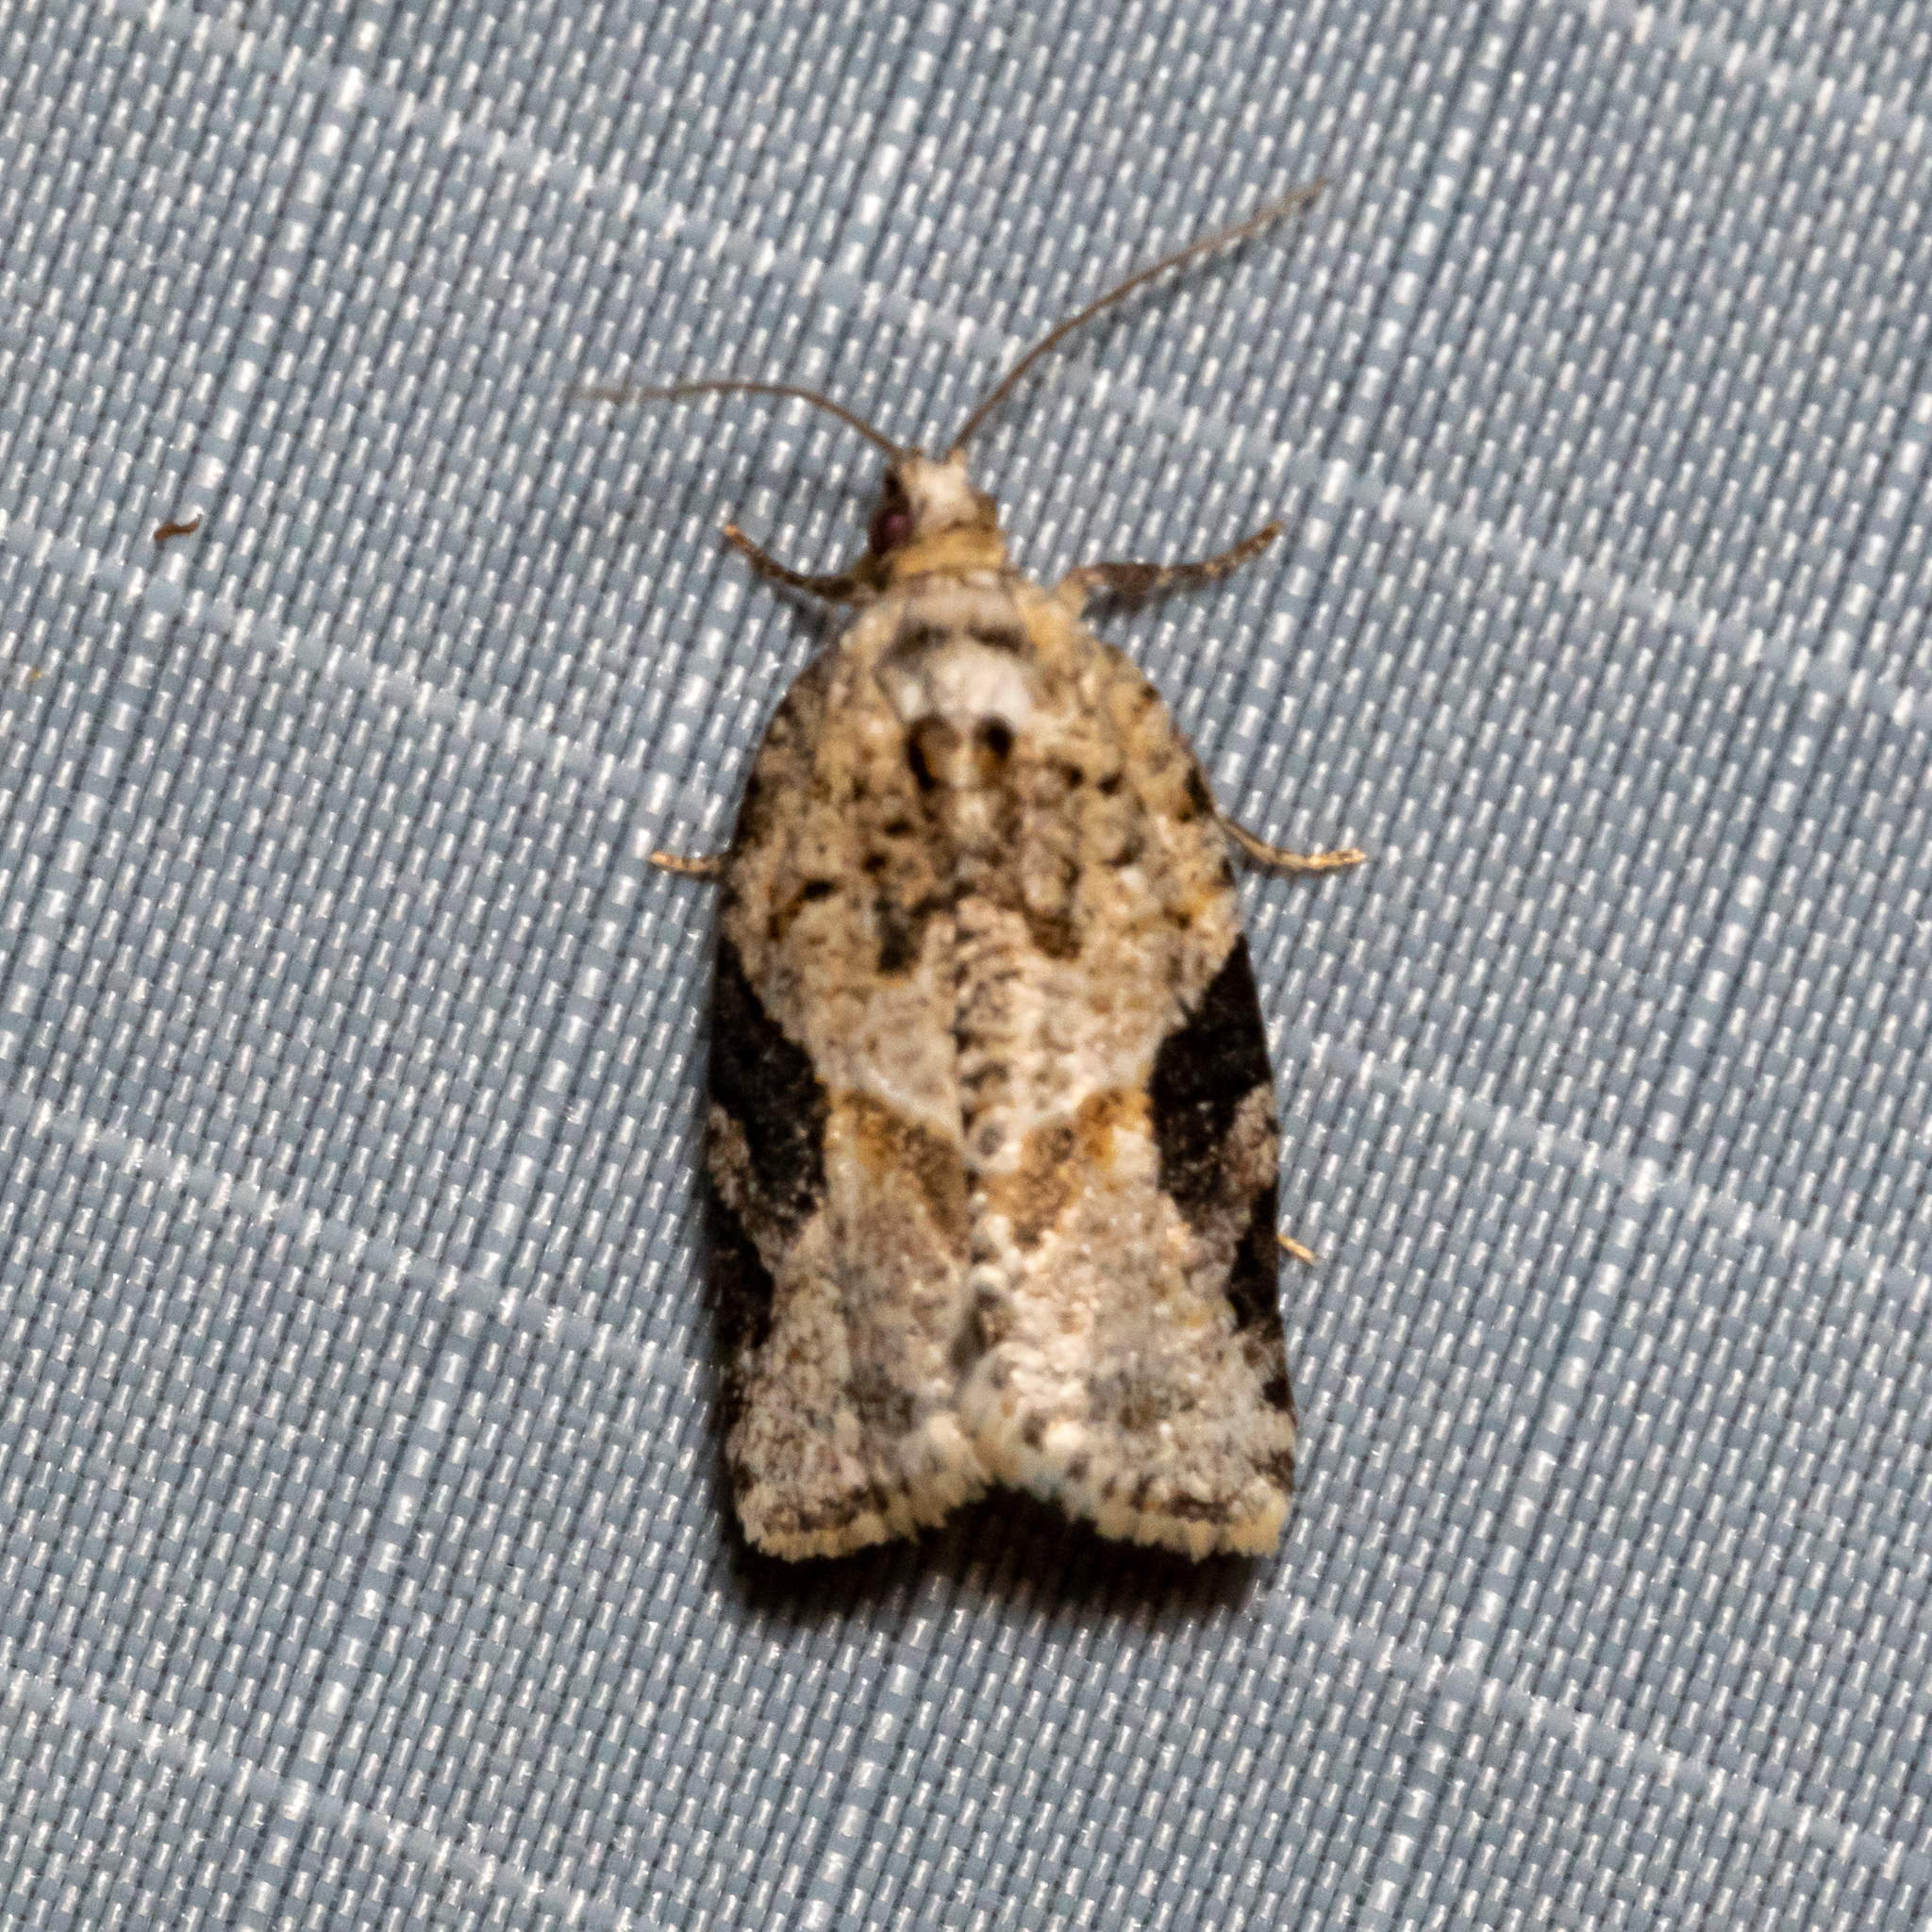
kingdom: Animalia
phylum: Arthropoda
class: Insecta
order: Lepidoptera
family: Tortricidae
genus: Argyrotaenia
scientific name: Argyrotaenia mariana
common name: Gray-banded leafroller moth
